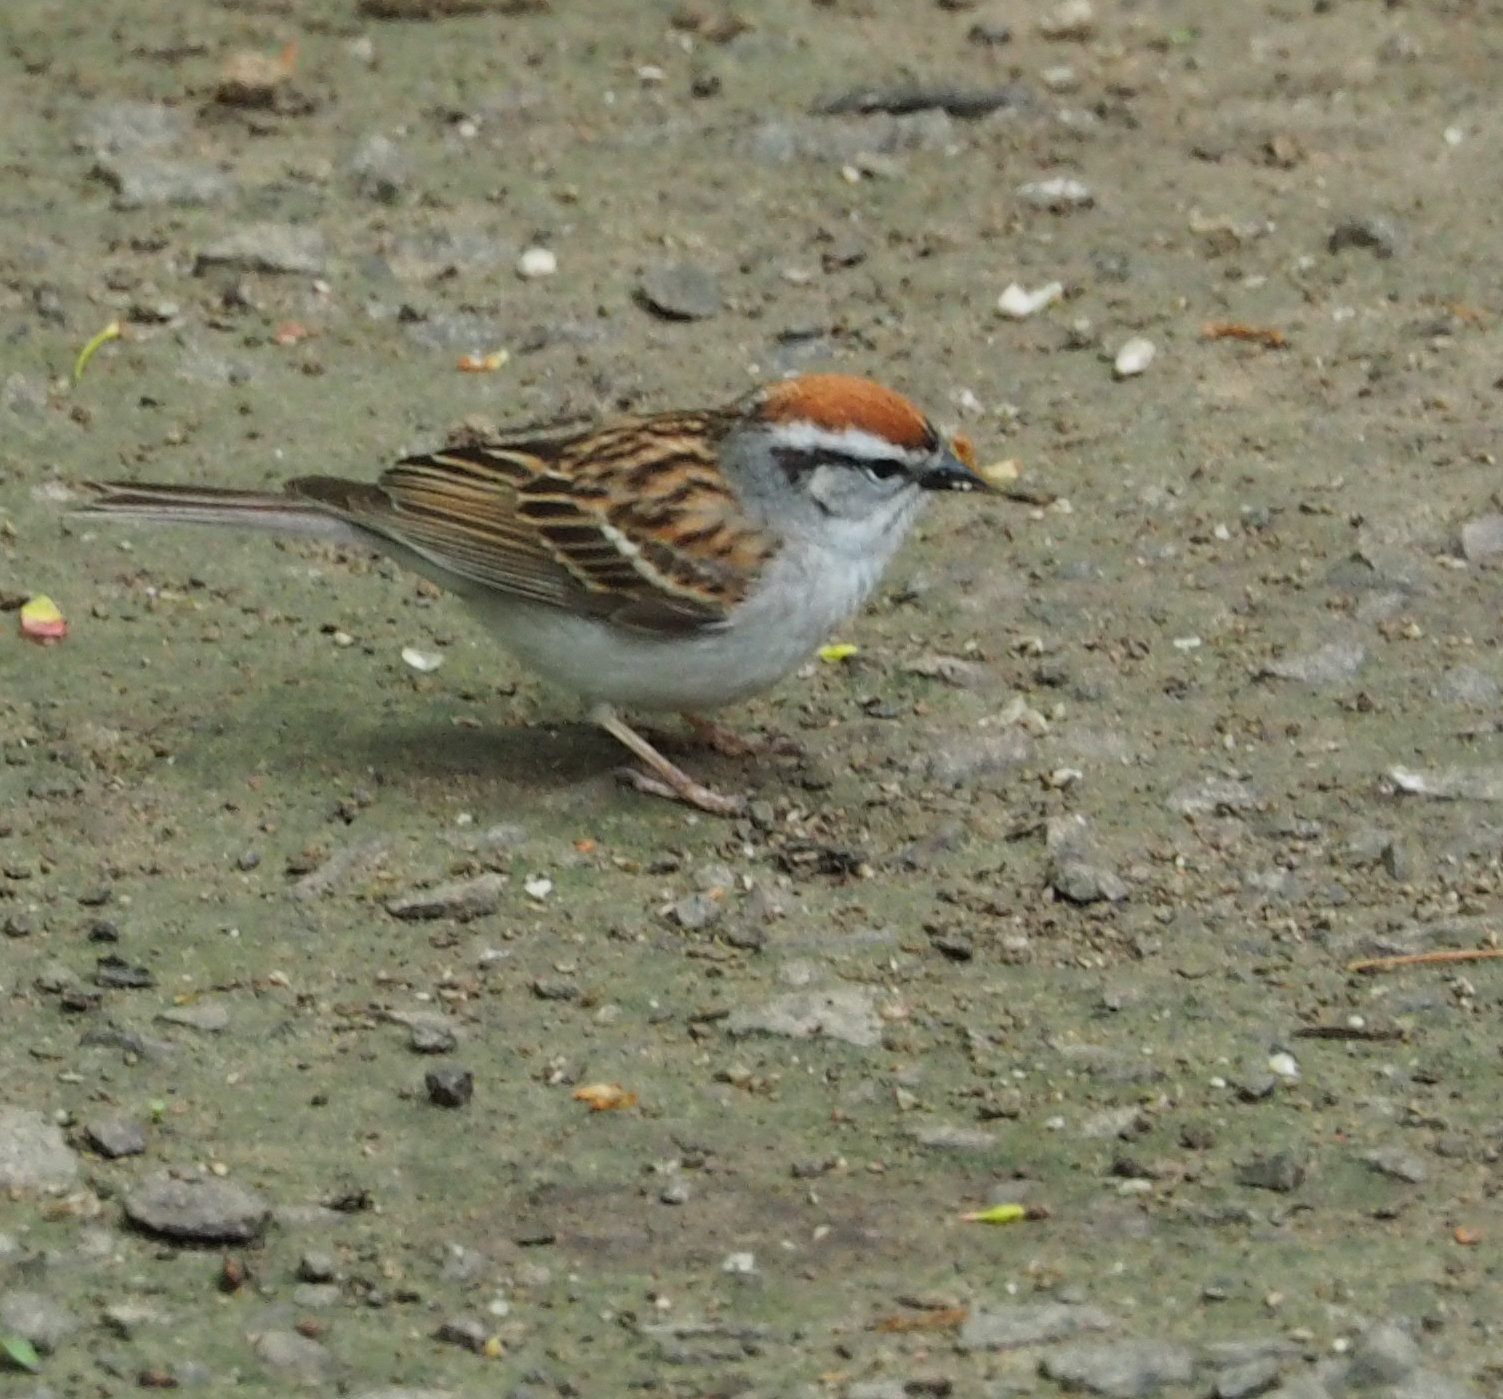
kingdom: Animalia
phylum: Chordata
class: Aves
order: Passeriformes
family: Passerellidae
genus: Spizella
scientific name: Spizella passerina
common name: Chipping sparrow
